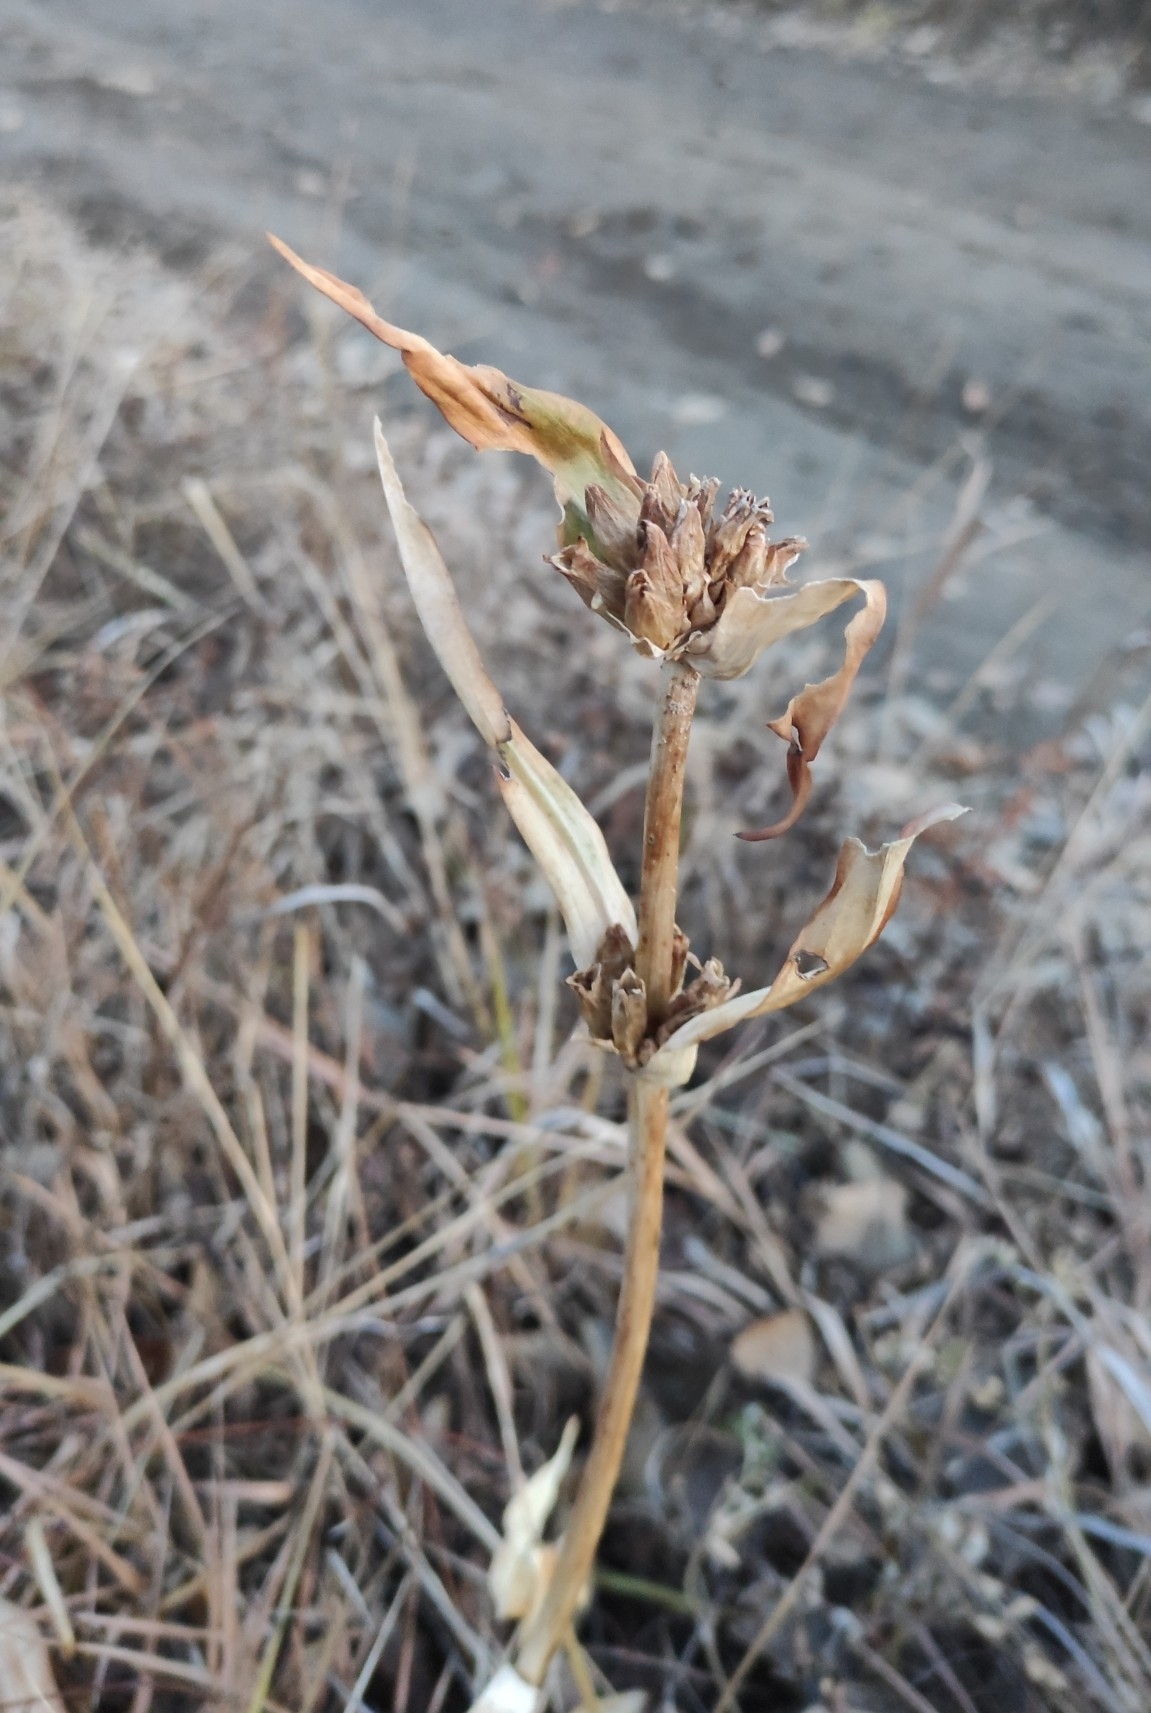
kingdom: Plantae
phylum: Tracheophyta
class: Magnoliopsida
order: Gentianales
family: Gentianaceae
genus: Gentiana
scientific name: Gentiana macrophylla
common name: Large-leaf gentian
